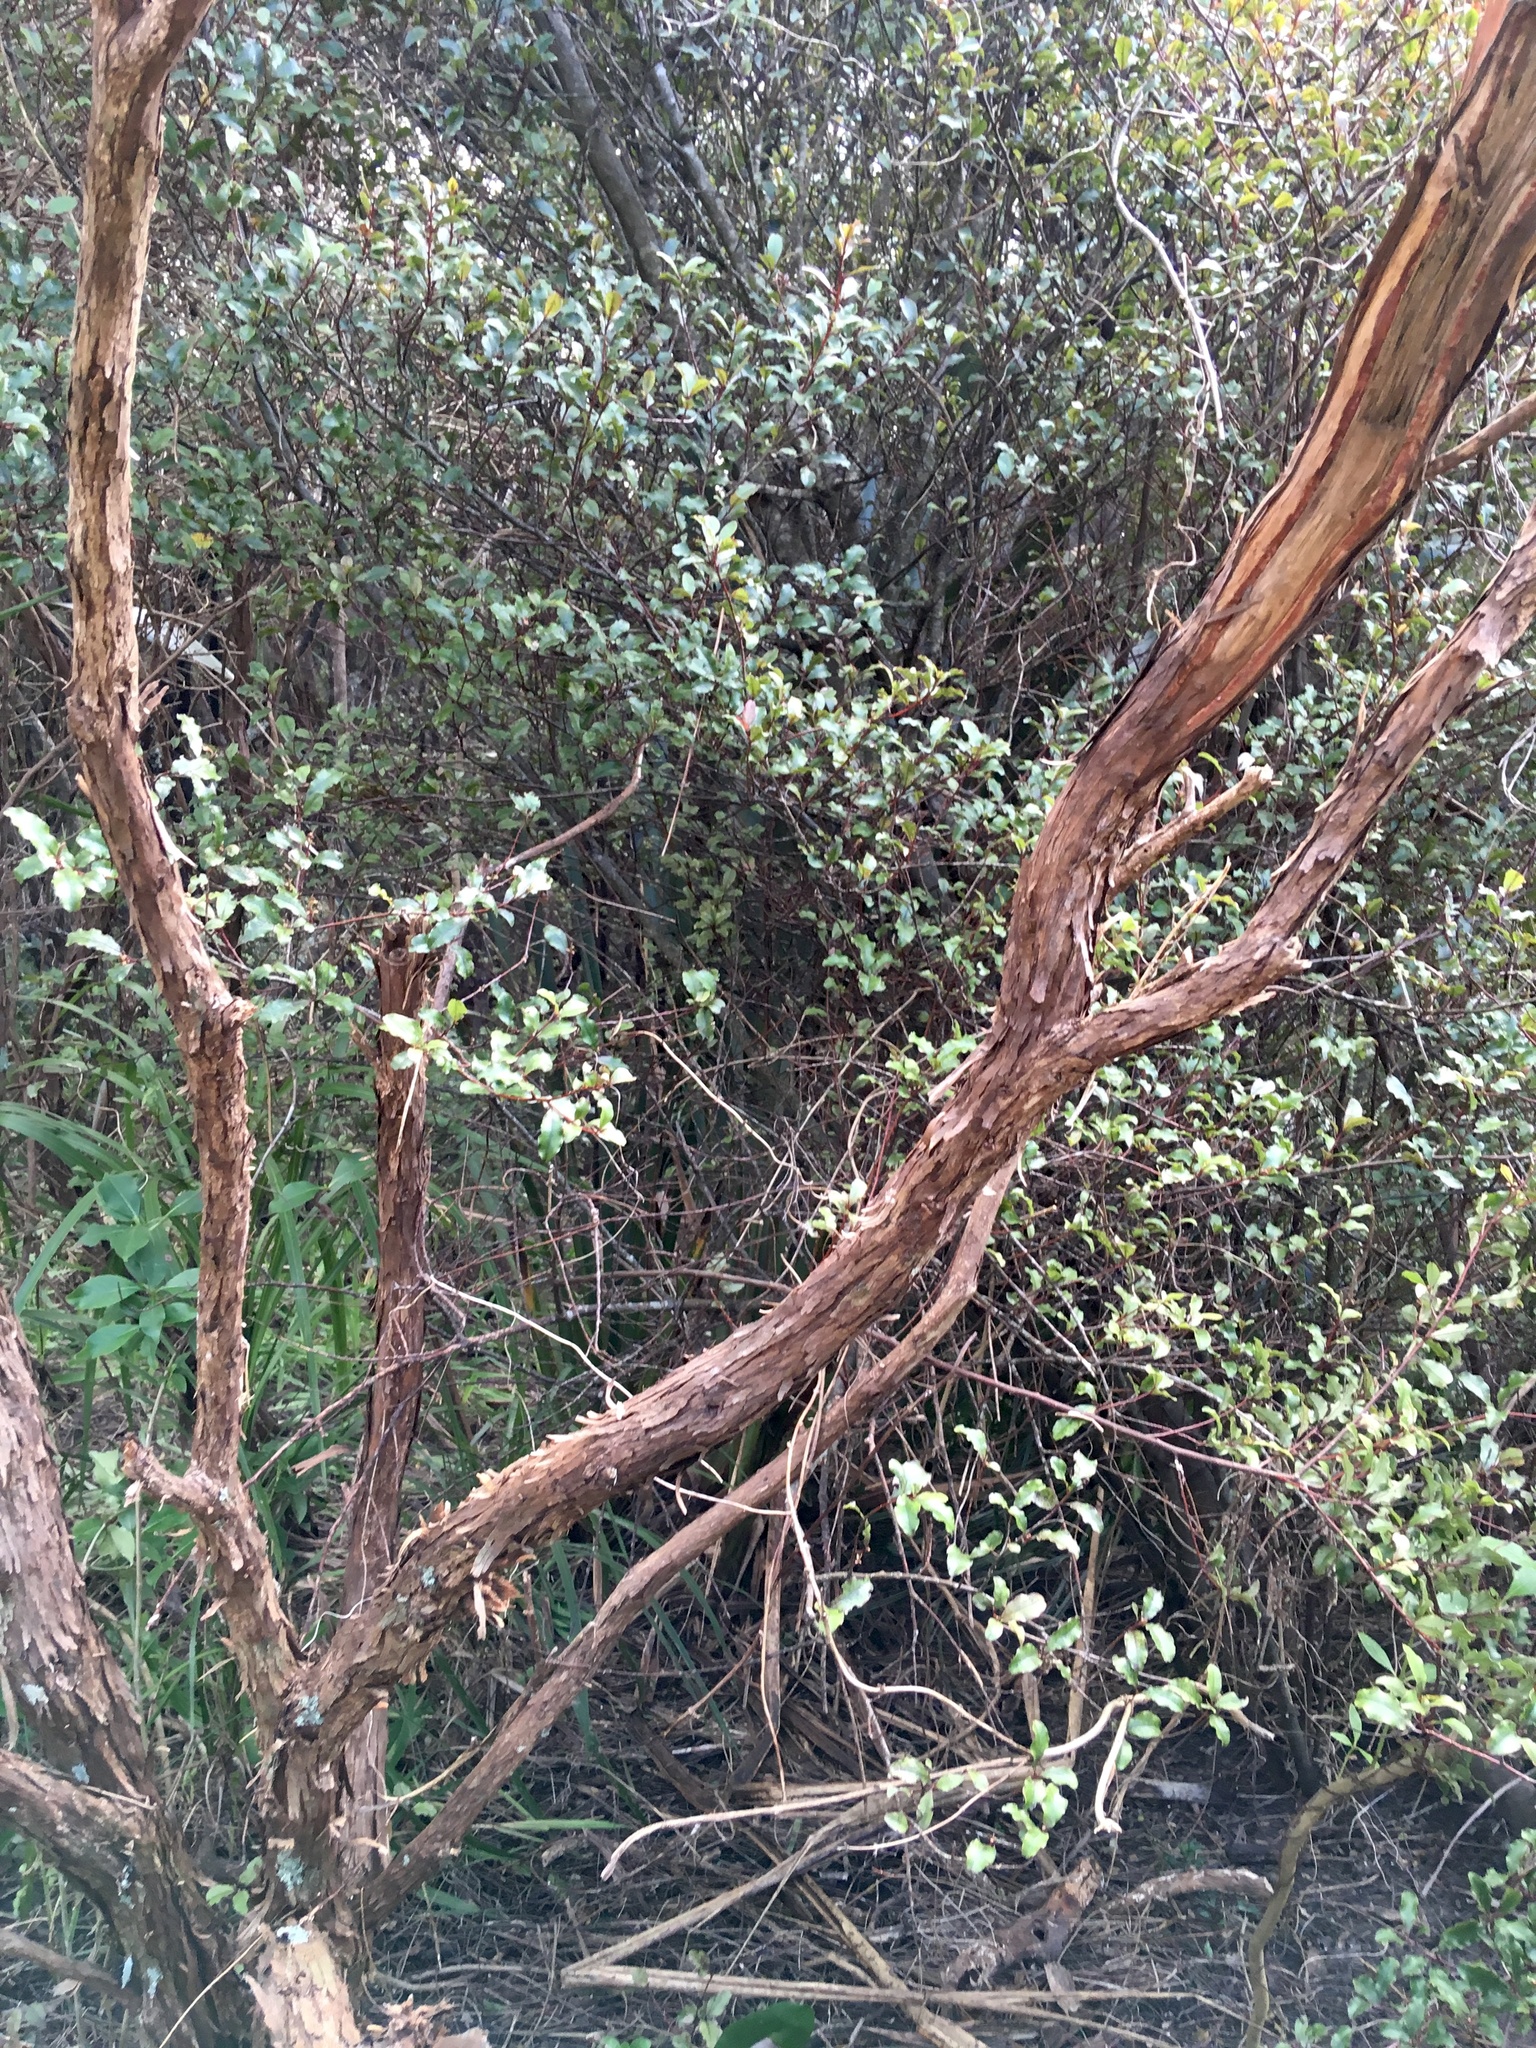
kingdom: Plantae
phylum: Tracheophyta
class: Magnoliopsida
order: Ericales
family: Primulaceae
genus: Myrsine
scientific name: Myrsine australis
